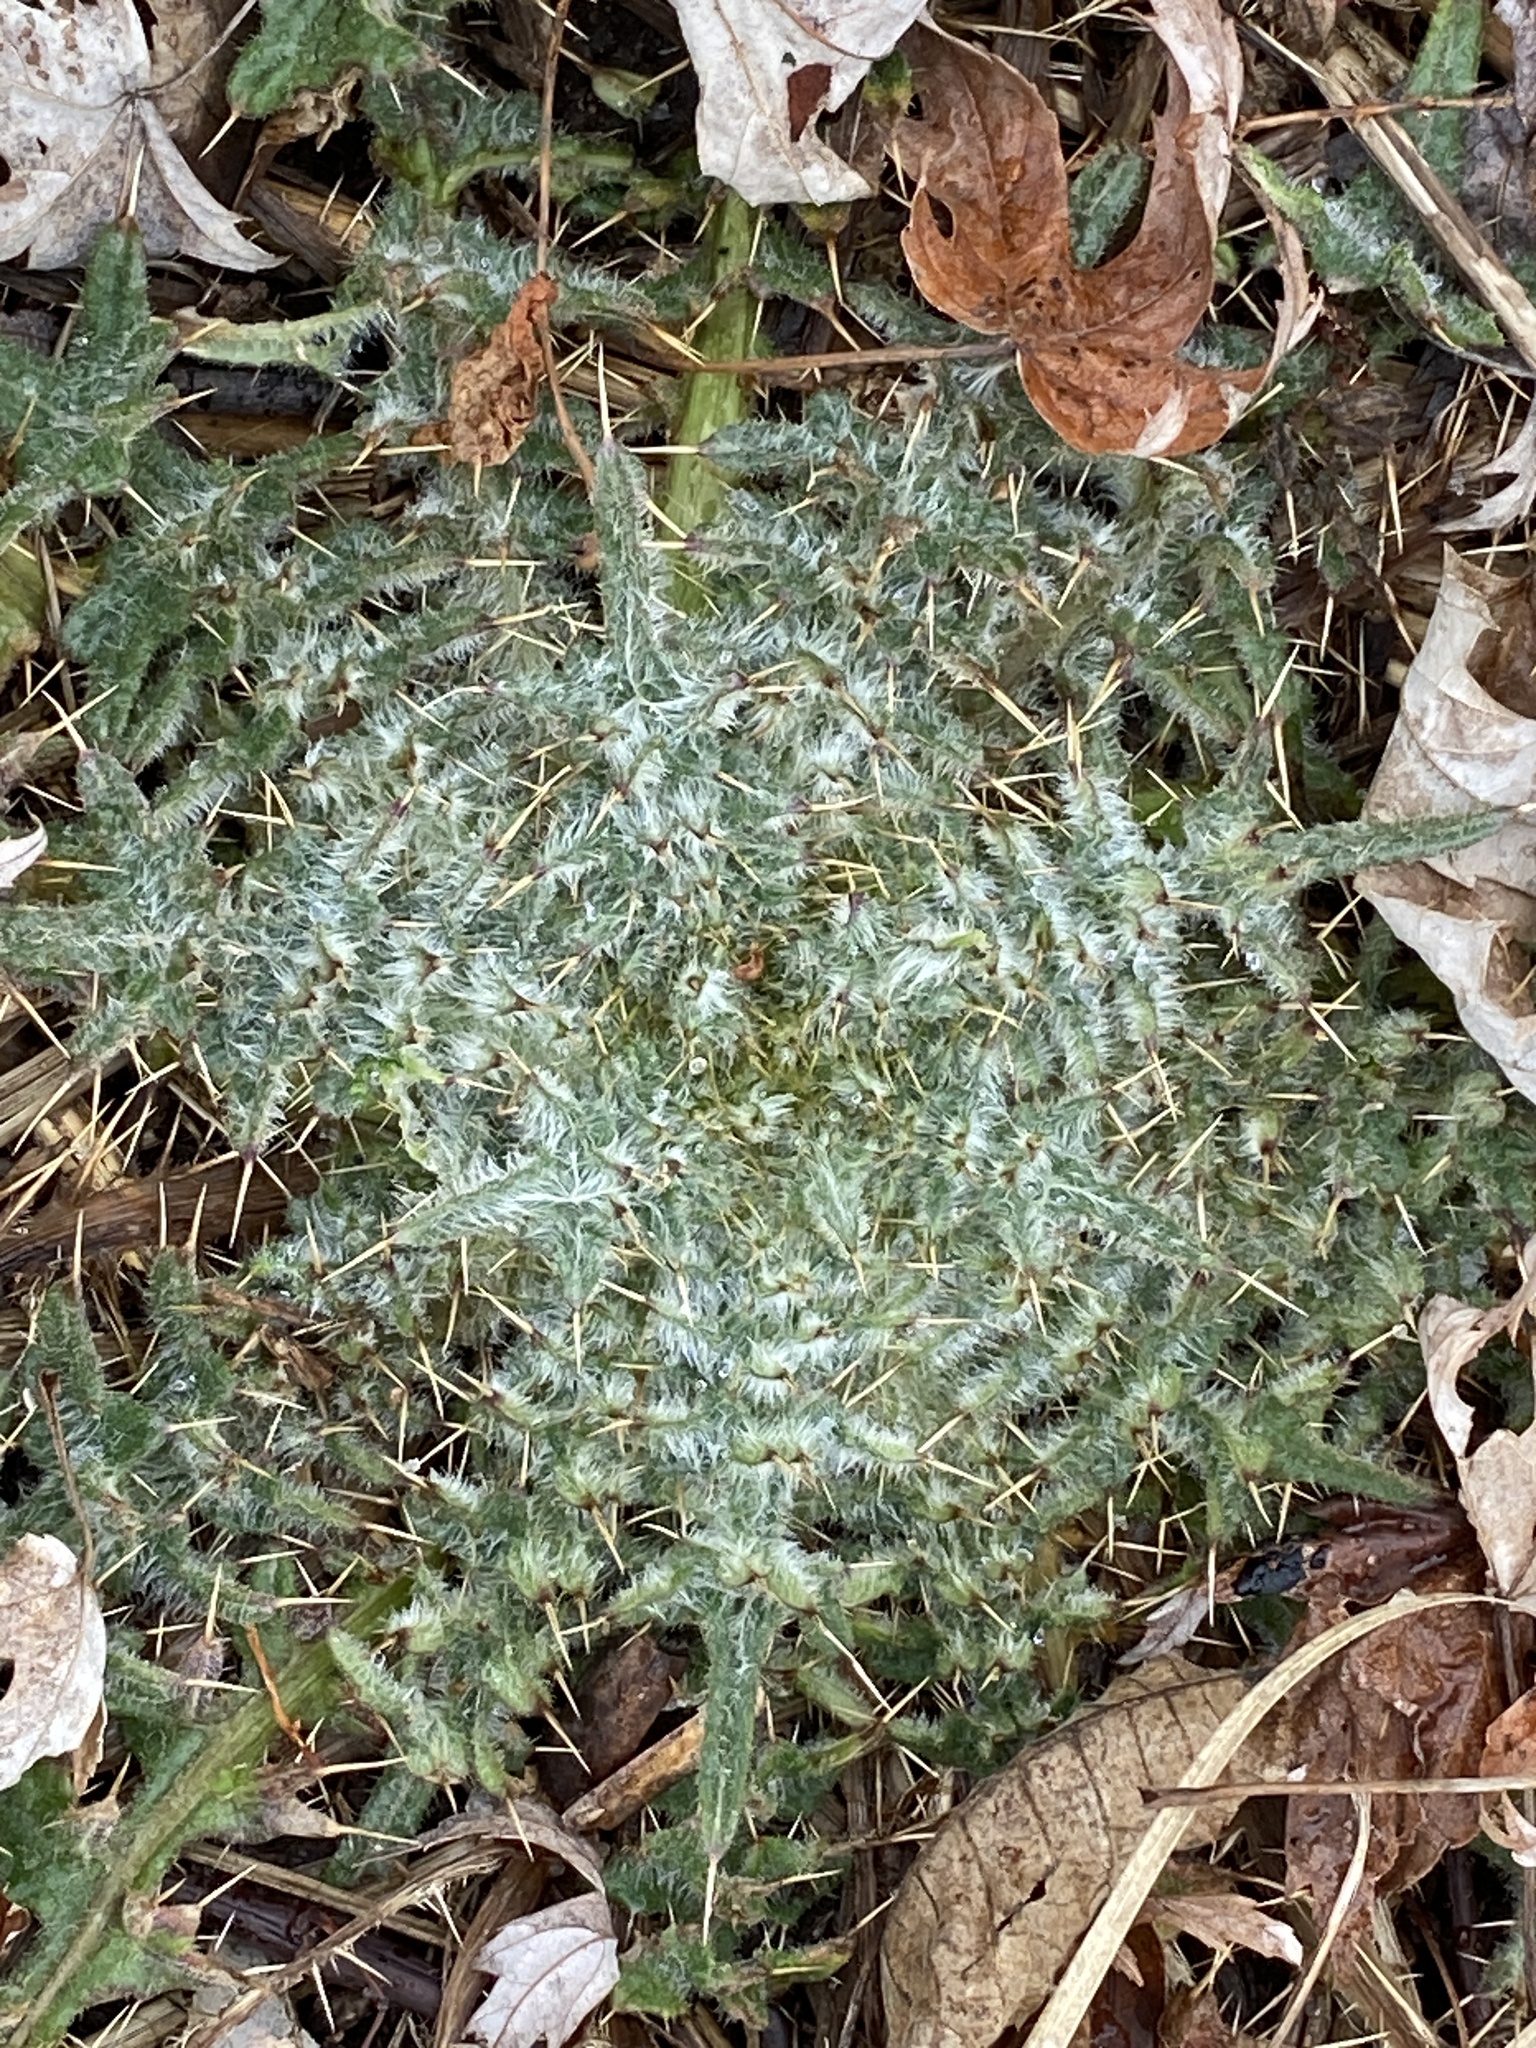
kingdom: Plantae
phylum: Tracheophyta
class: Magnoliopsida
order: Asterales
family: Asteraceae
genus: Cirsium
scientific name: Cirsium vulgare
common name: Bull thistle
